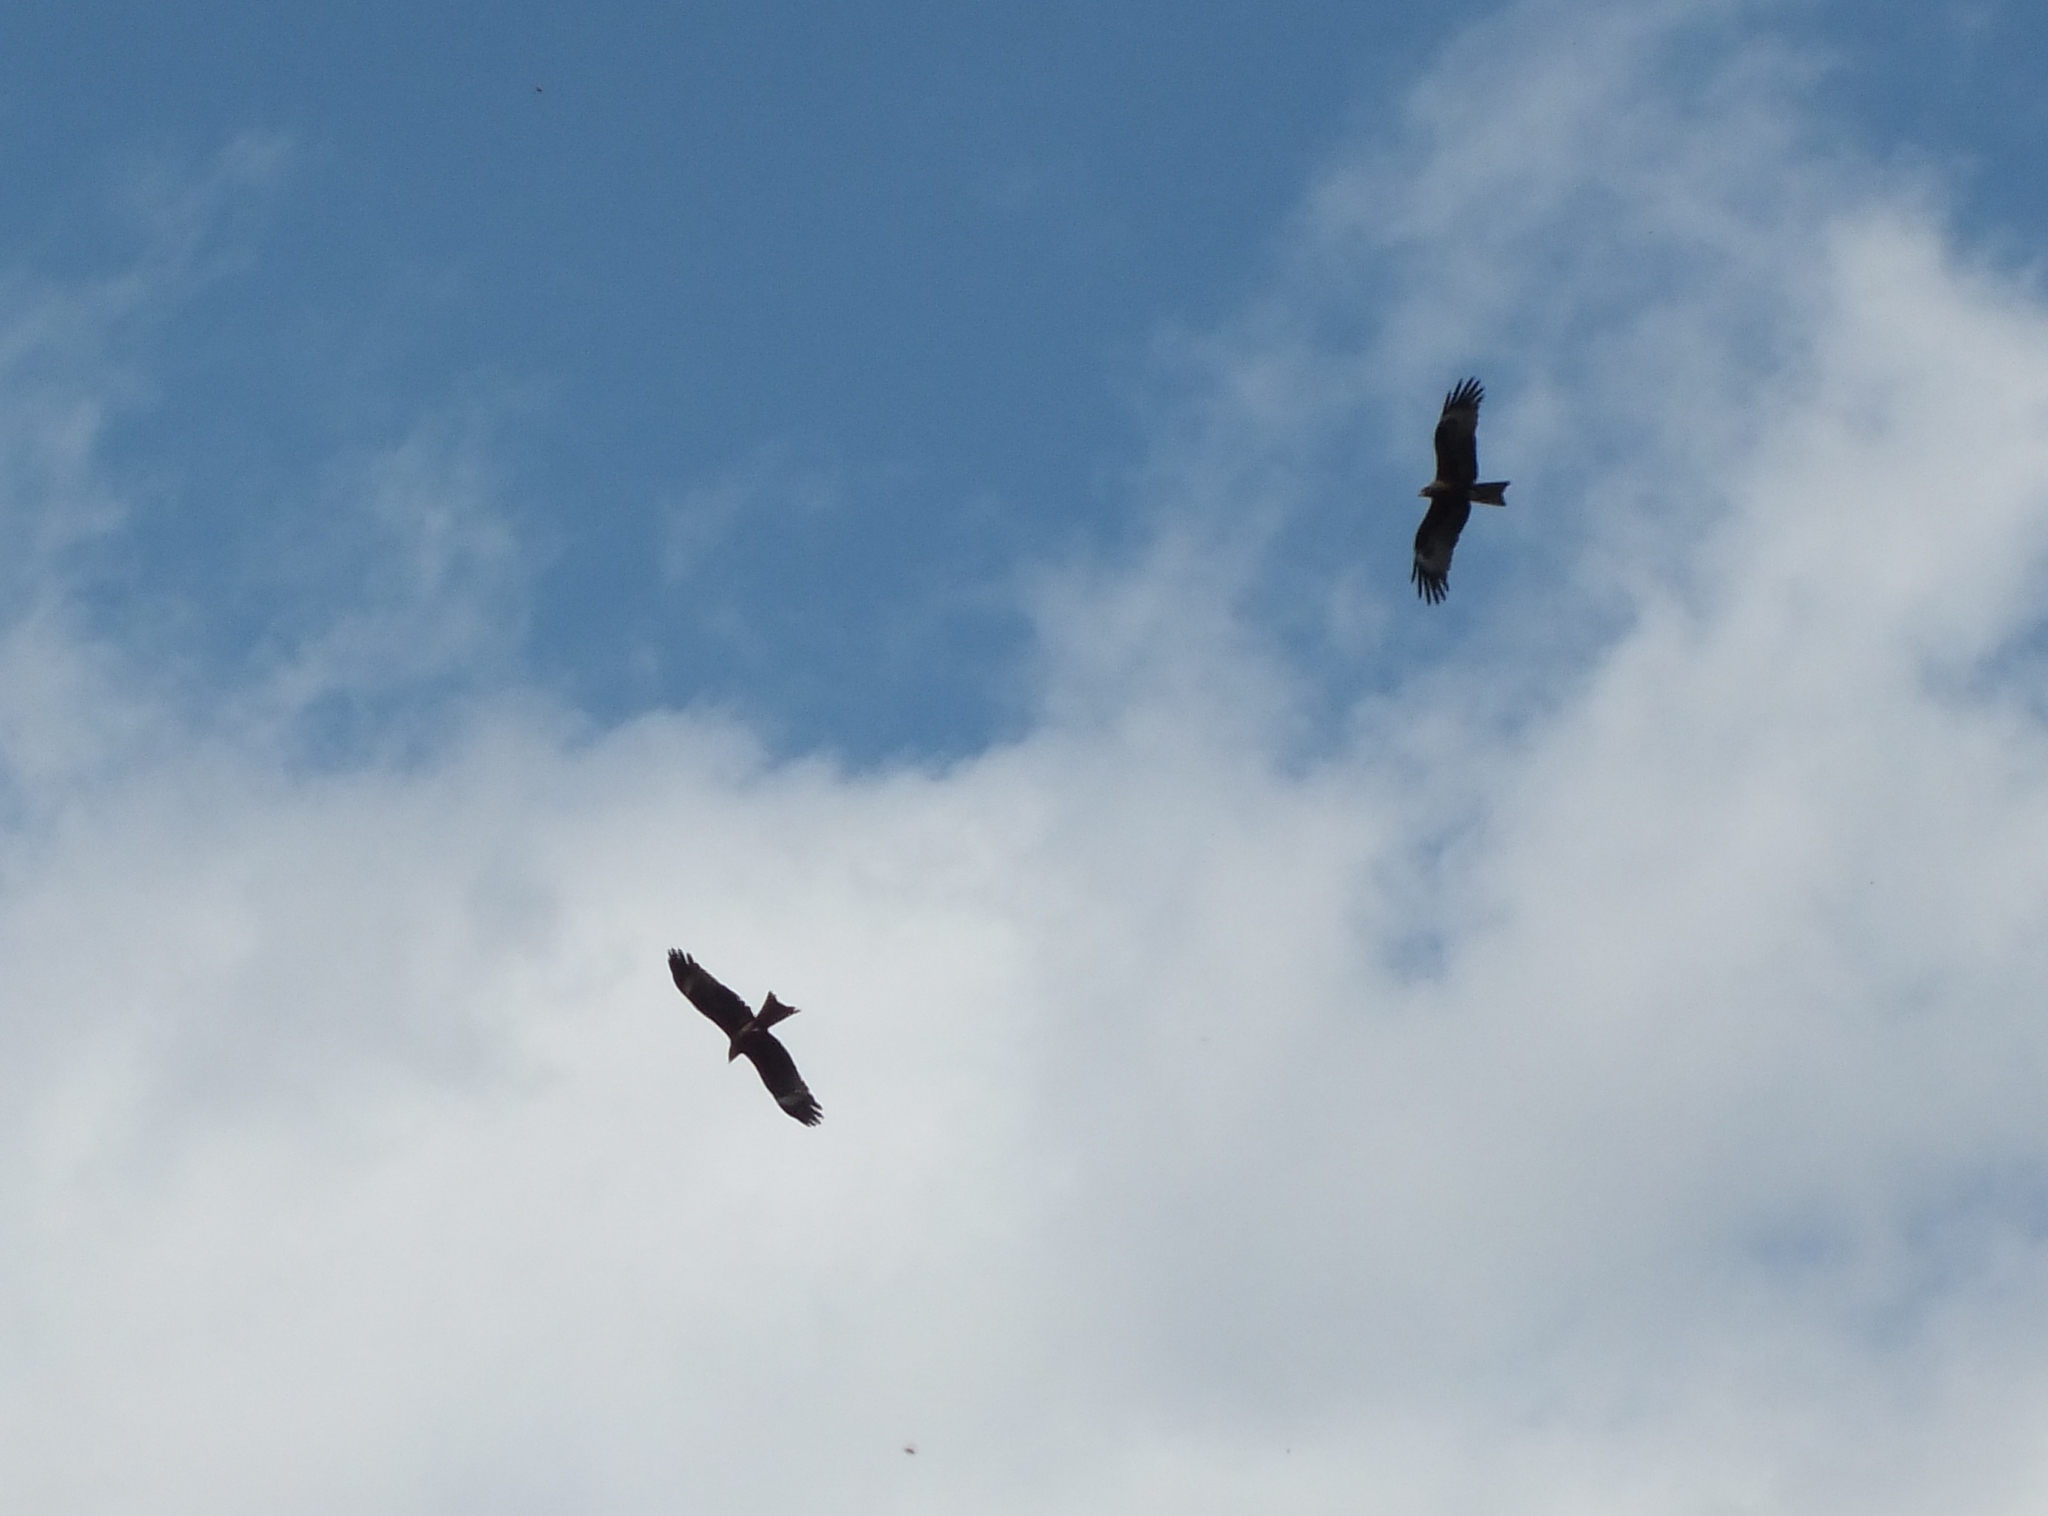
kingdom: Animalia
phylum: Chordata
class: Aves
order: Accipitriformes
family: Accipitridae
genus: Milvus
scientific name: Milvus migrans
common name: Black kite
